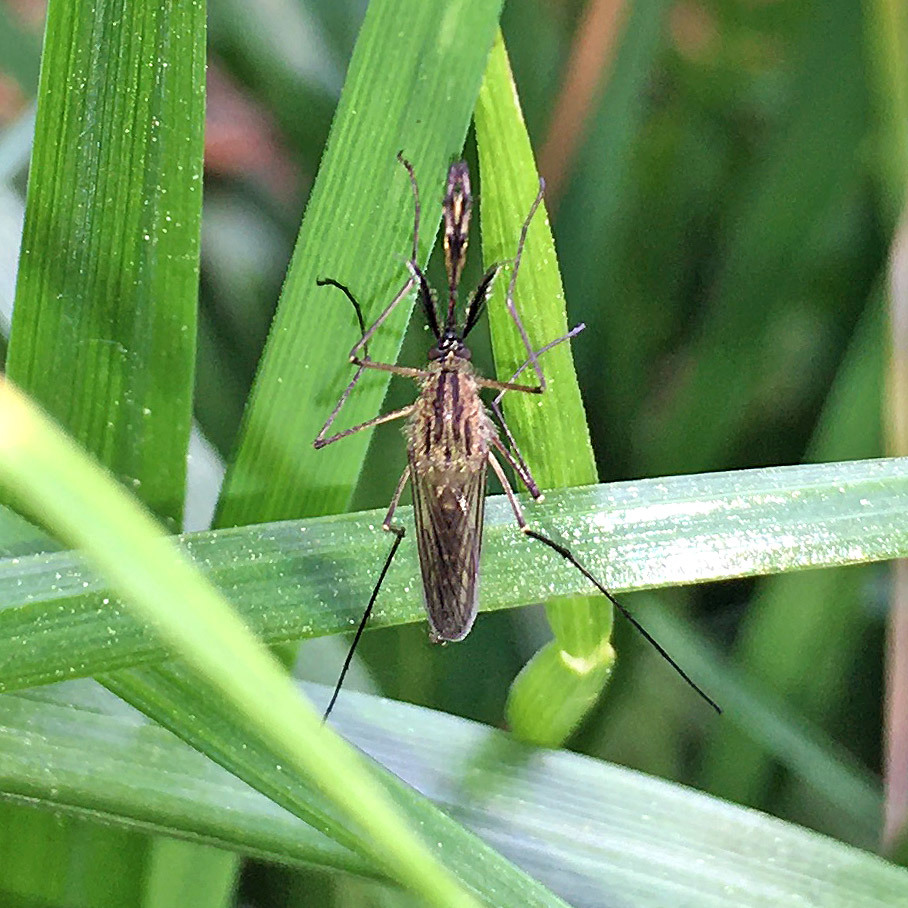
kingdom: Animalia
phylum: Arthropoda
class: Insecta
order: Diptera
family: Culicidae
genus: Aedes
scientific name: Aedes rusticus
